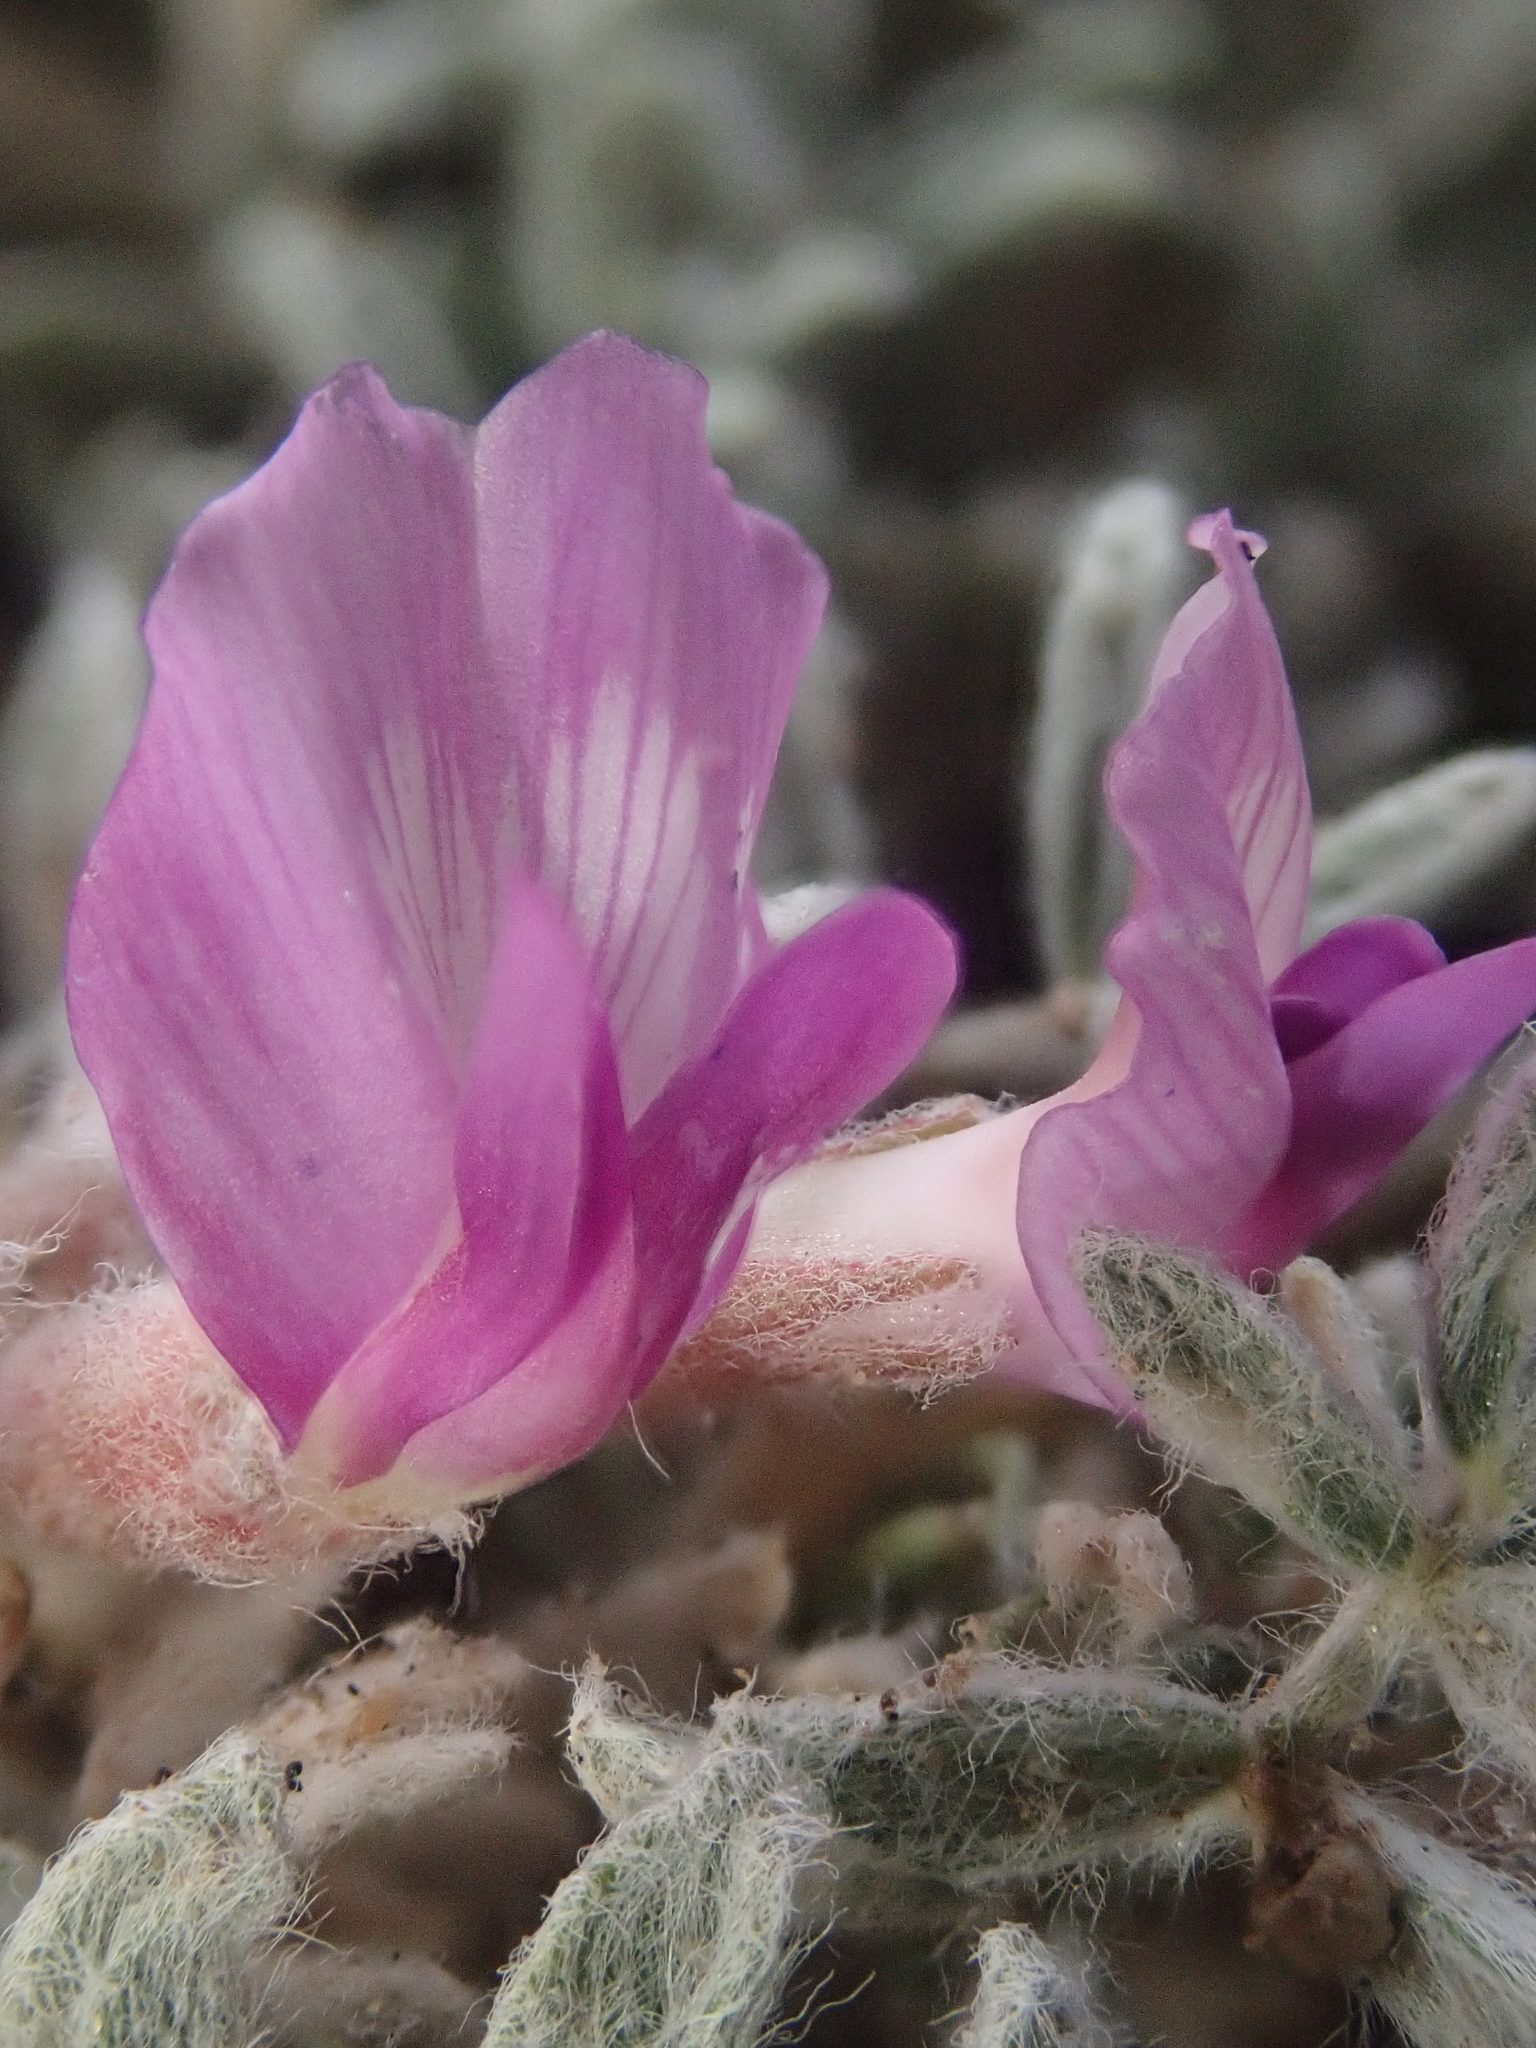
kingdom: Plantae
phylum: Tracheophyta
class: Magnoliopsida
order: Fabales
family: Fabaceae
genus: Astragalus
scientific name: Astragalus purshii
